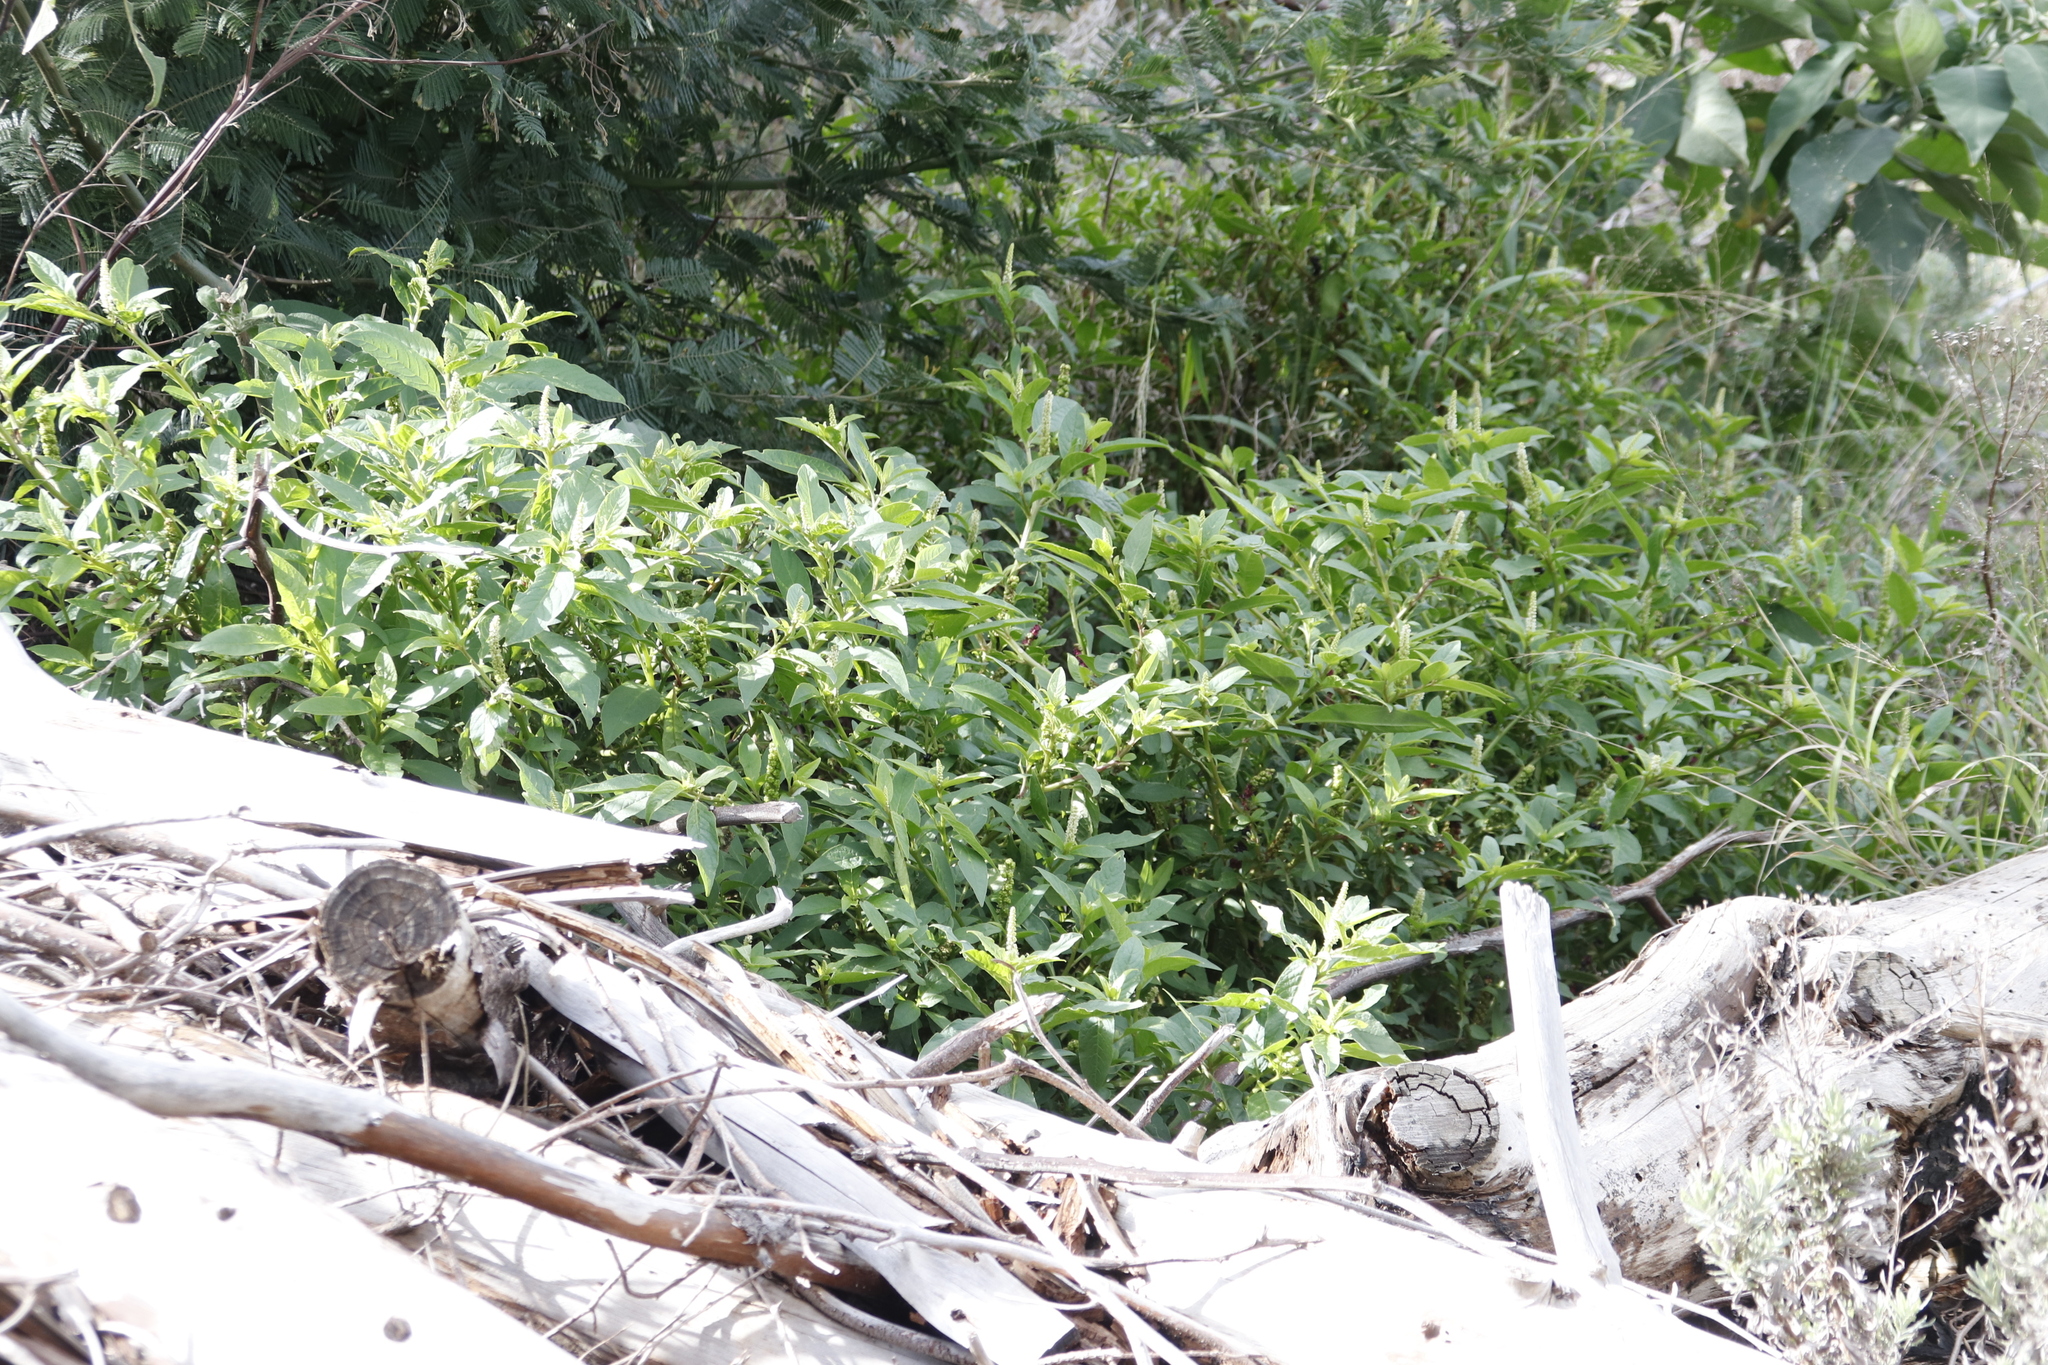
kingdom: Plantae
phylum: Tracheophyta
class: Magnoliopsida
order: Caryophyllales
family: Phytolaccaceae
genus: Phytolacca
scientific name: Phytolacca icosandra
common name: Button pokeweed
